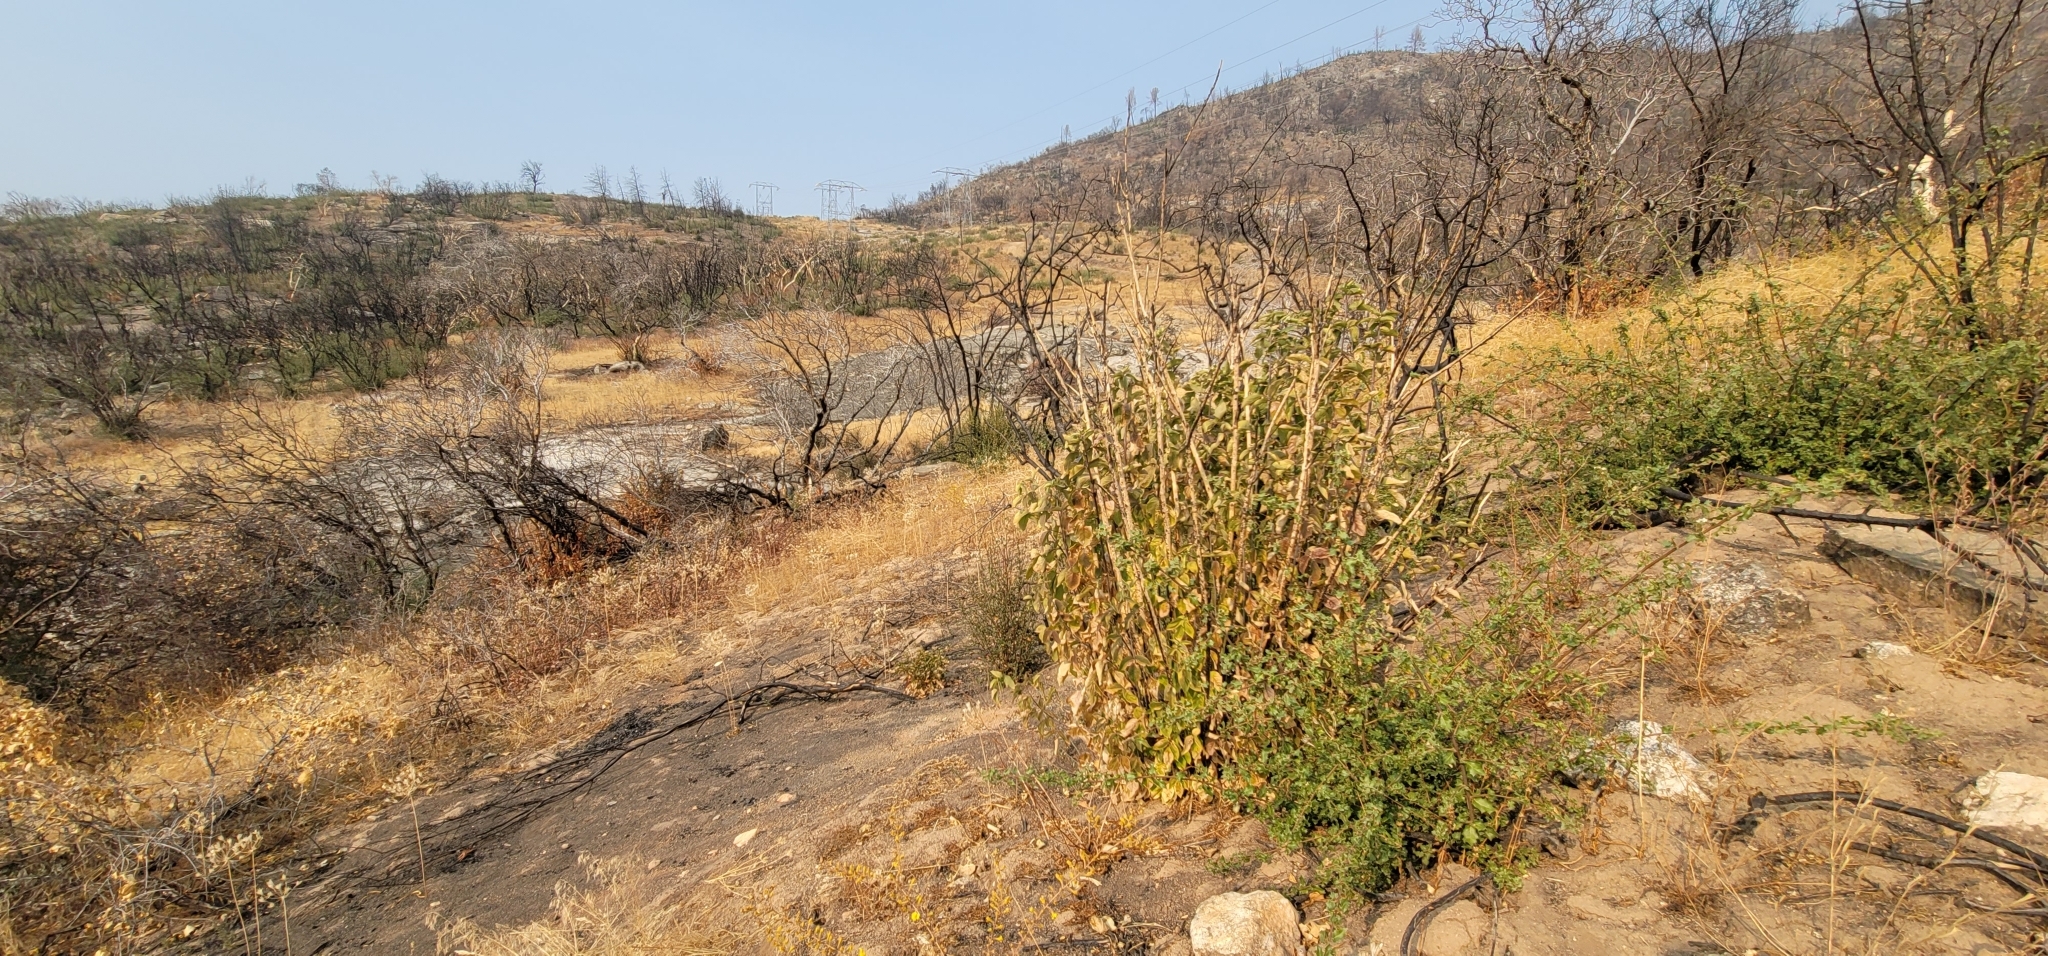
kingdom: Plantae
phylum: Tracheophyta
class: Magnoliopsida
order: Sapindales
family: Rutaceae
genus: Ptelea
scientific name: Ptelea crenulata
